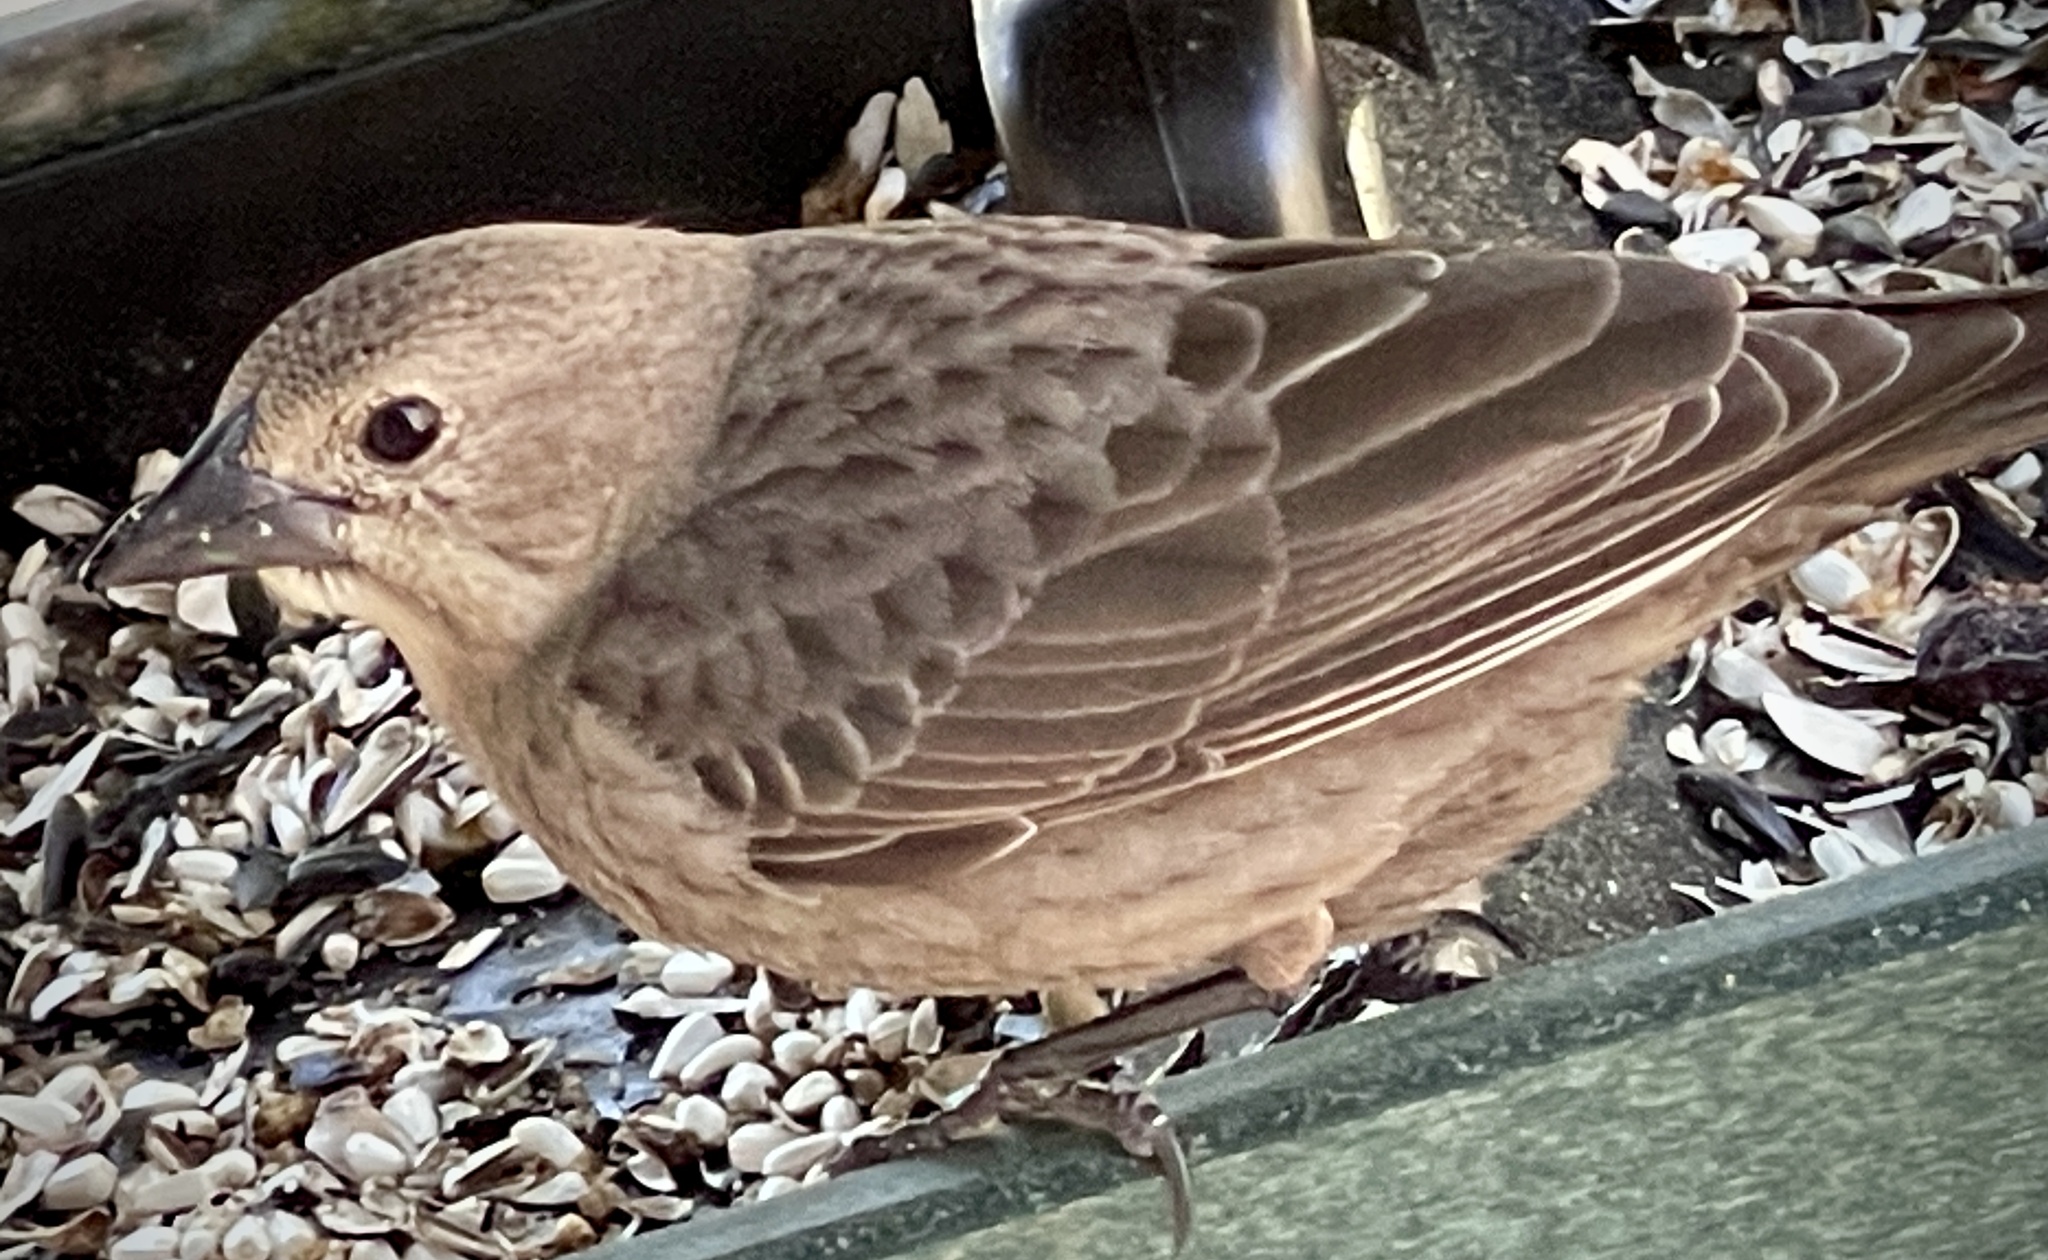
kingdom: Animalia
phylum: Chordata
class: Aves
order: Passeriformes
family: Icteridae
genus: Molothrus
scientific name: Molothrus ater
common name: Brown-headed cowbird
